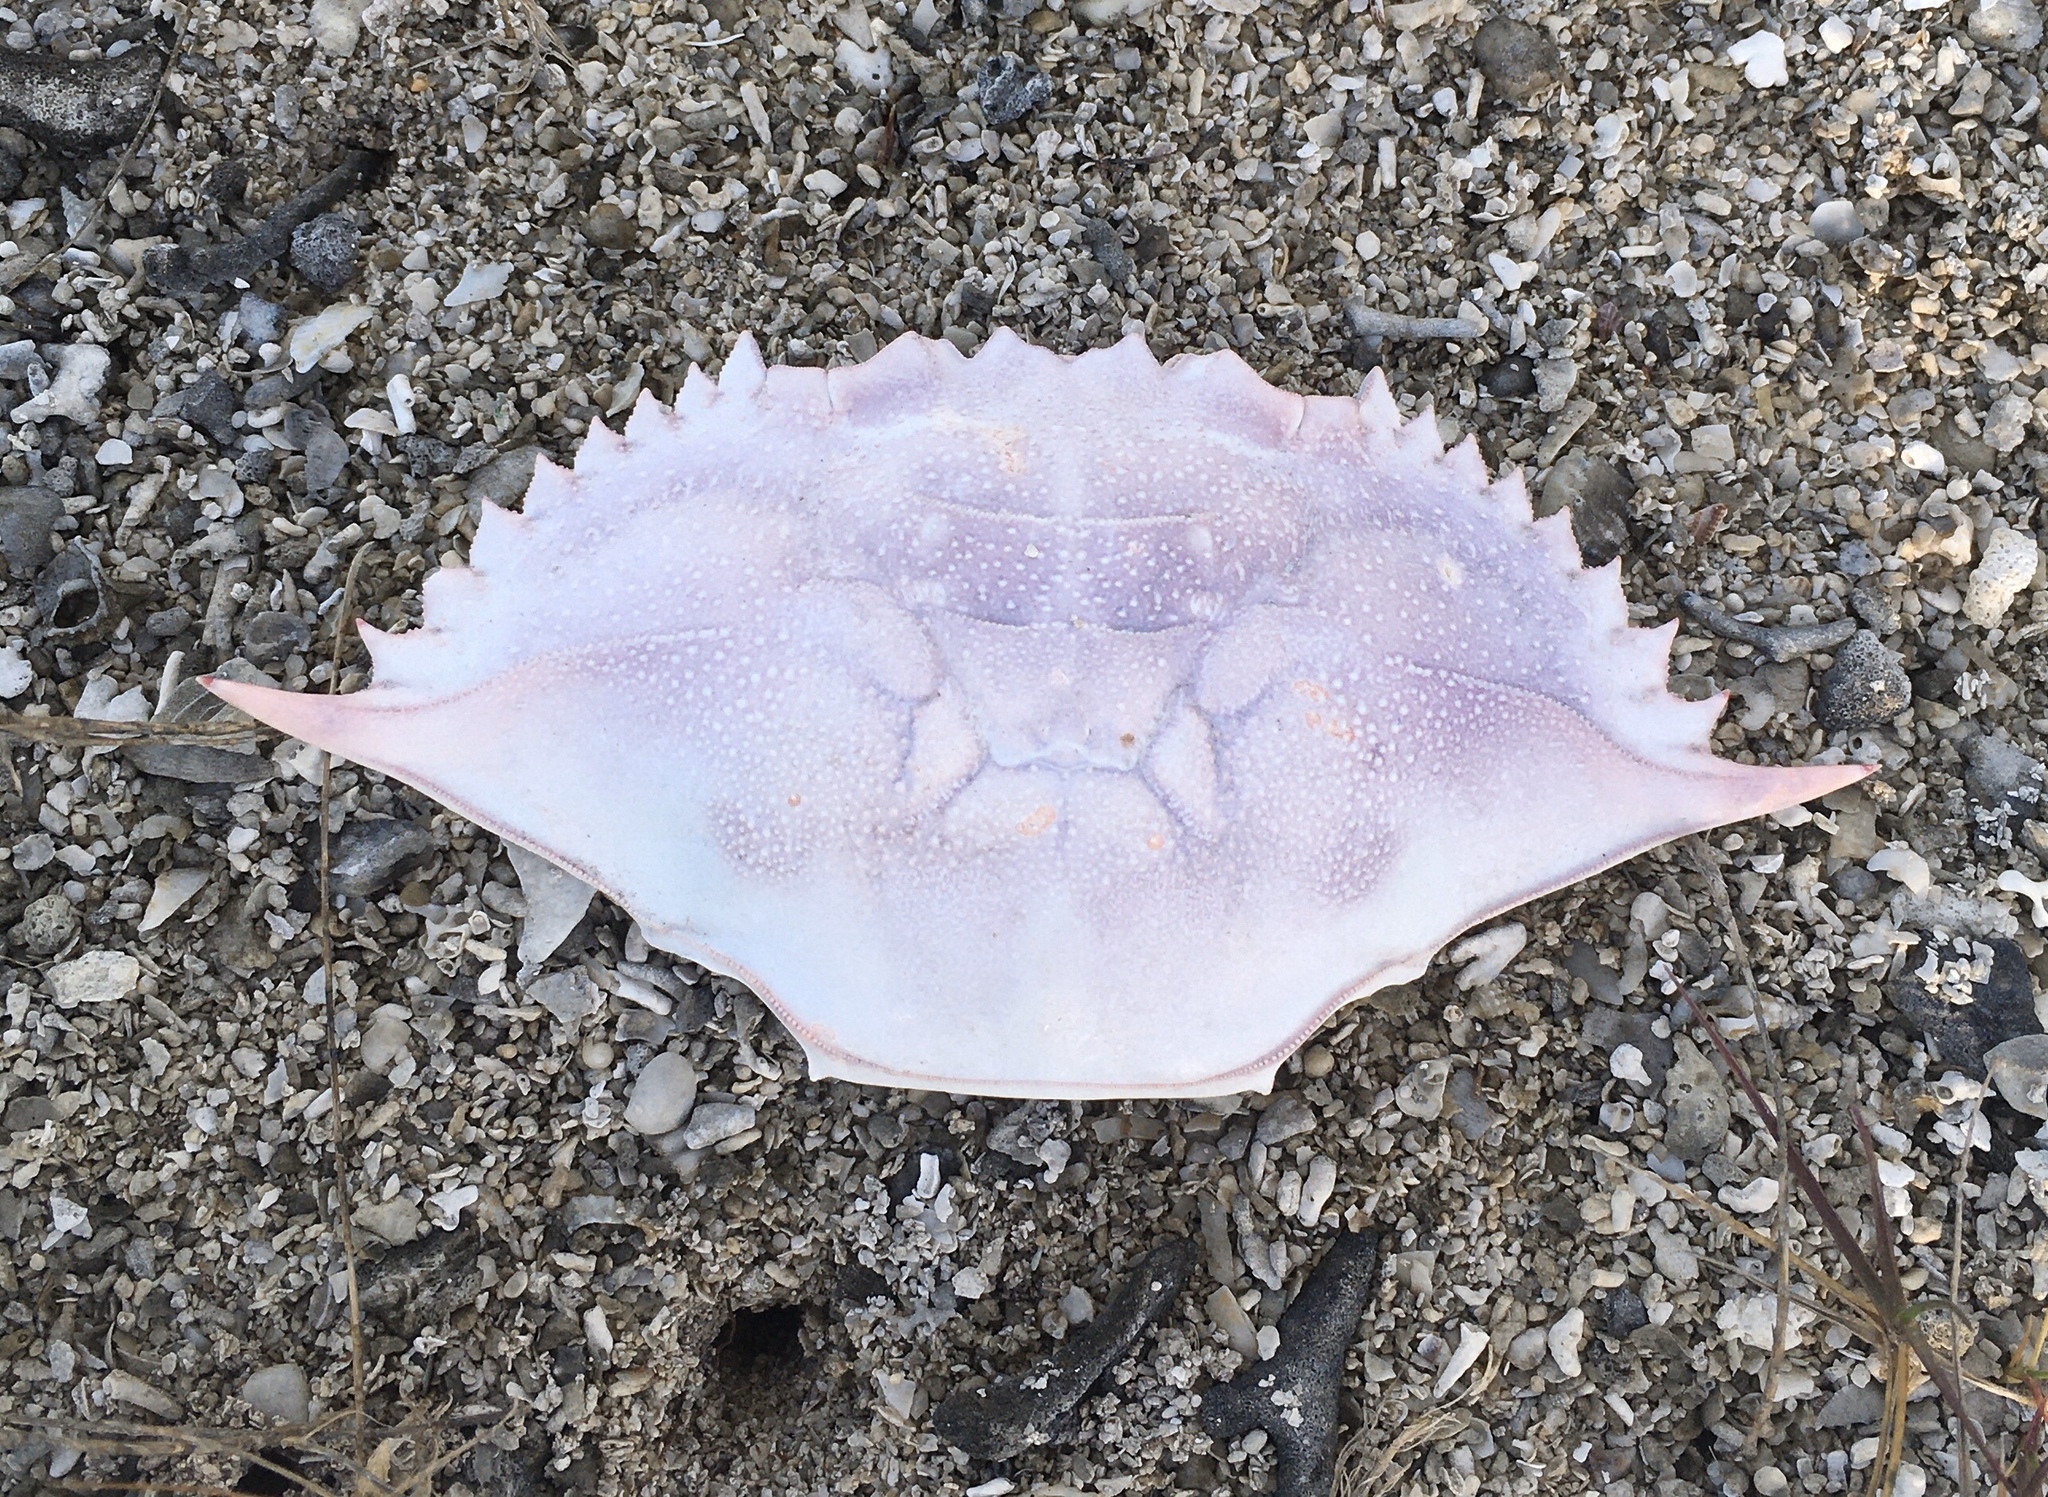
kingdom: Animalia
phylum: Arthropoda
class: Malacostraca
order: Decapoda
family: Portunidae
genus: Callinectes
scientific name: Callinectes sapidus
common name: Blue crab
